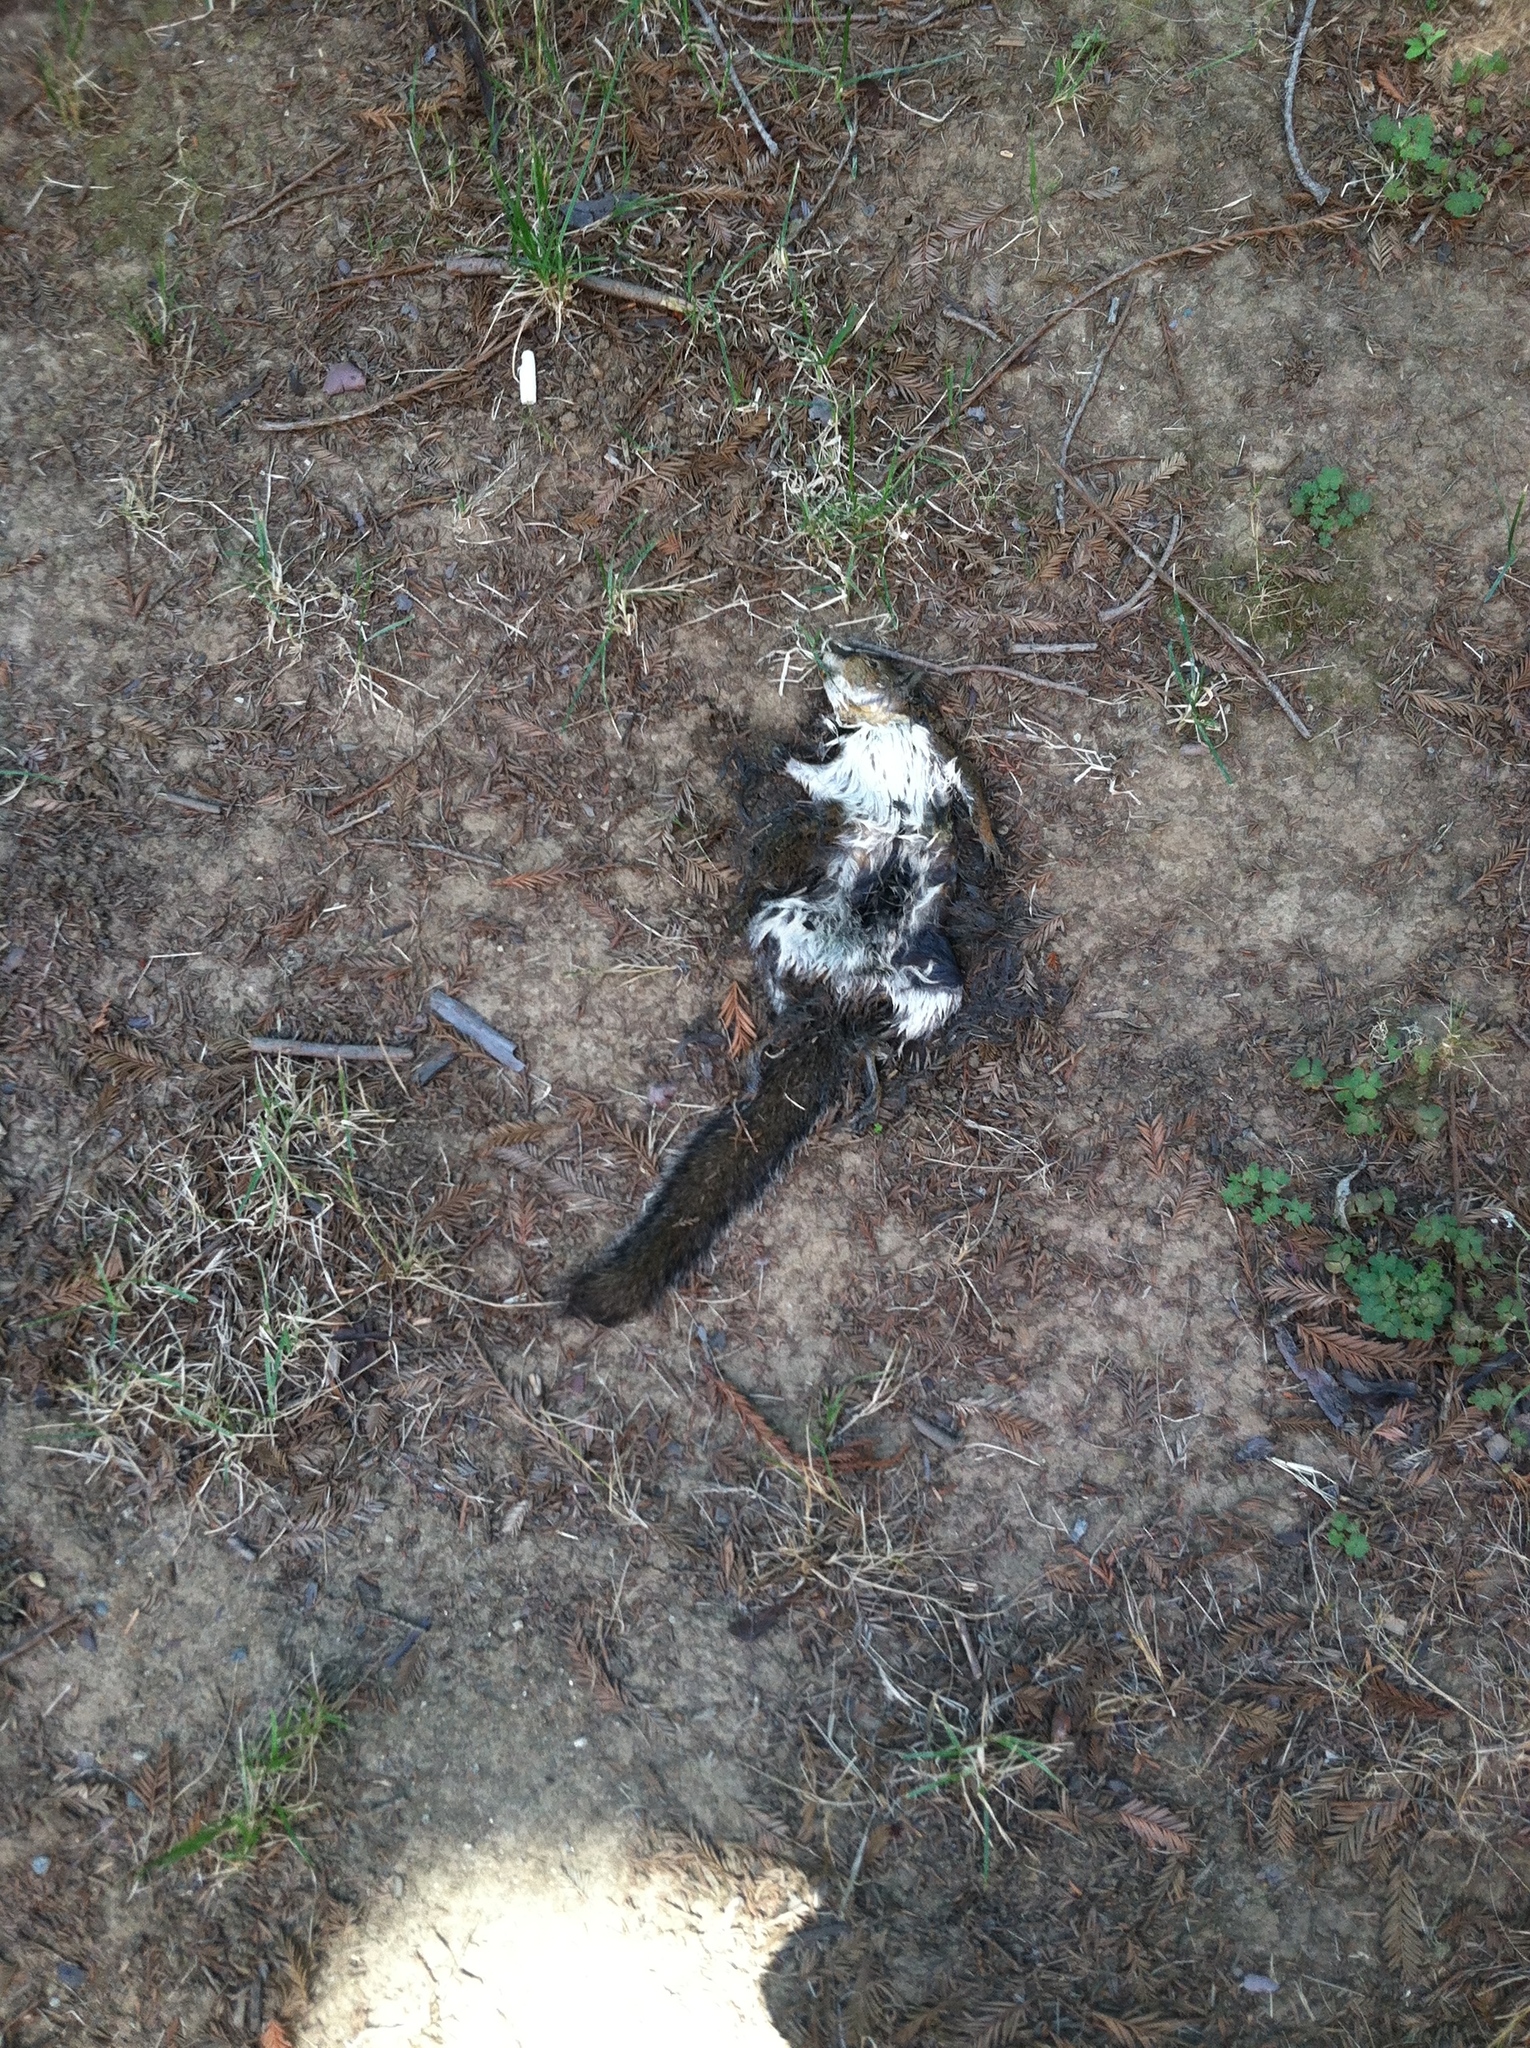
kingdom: Animalia
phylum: Chordata
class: Mammalia
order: Rodentia
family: Sciuridae
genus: Sciurus
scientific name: Sciurus carolinensis
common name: Eastern gray squirrel
